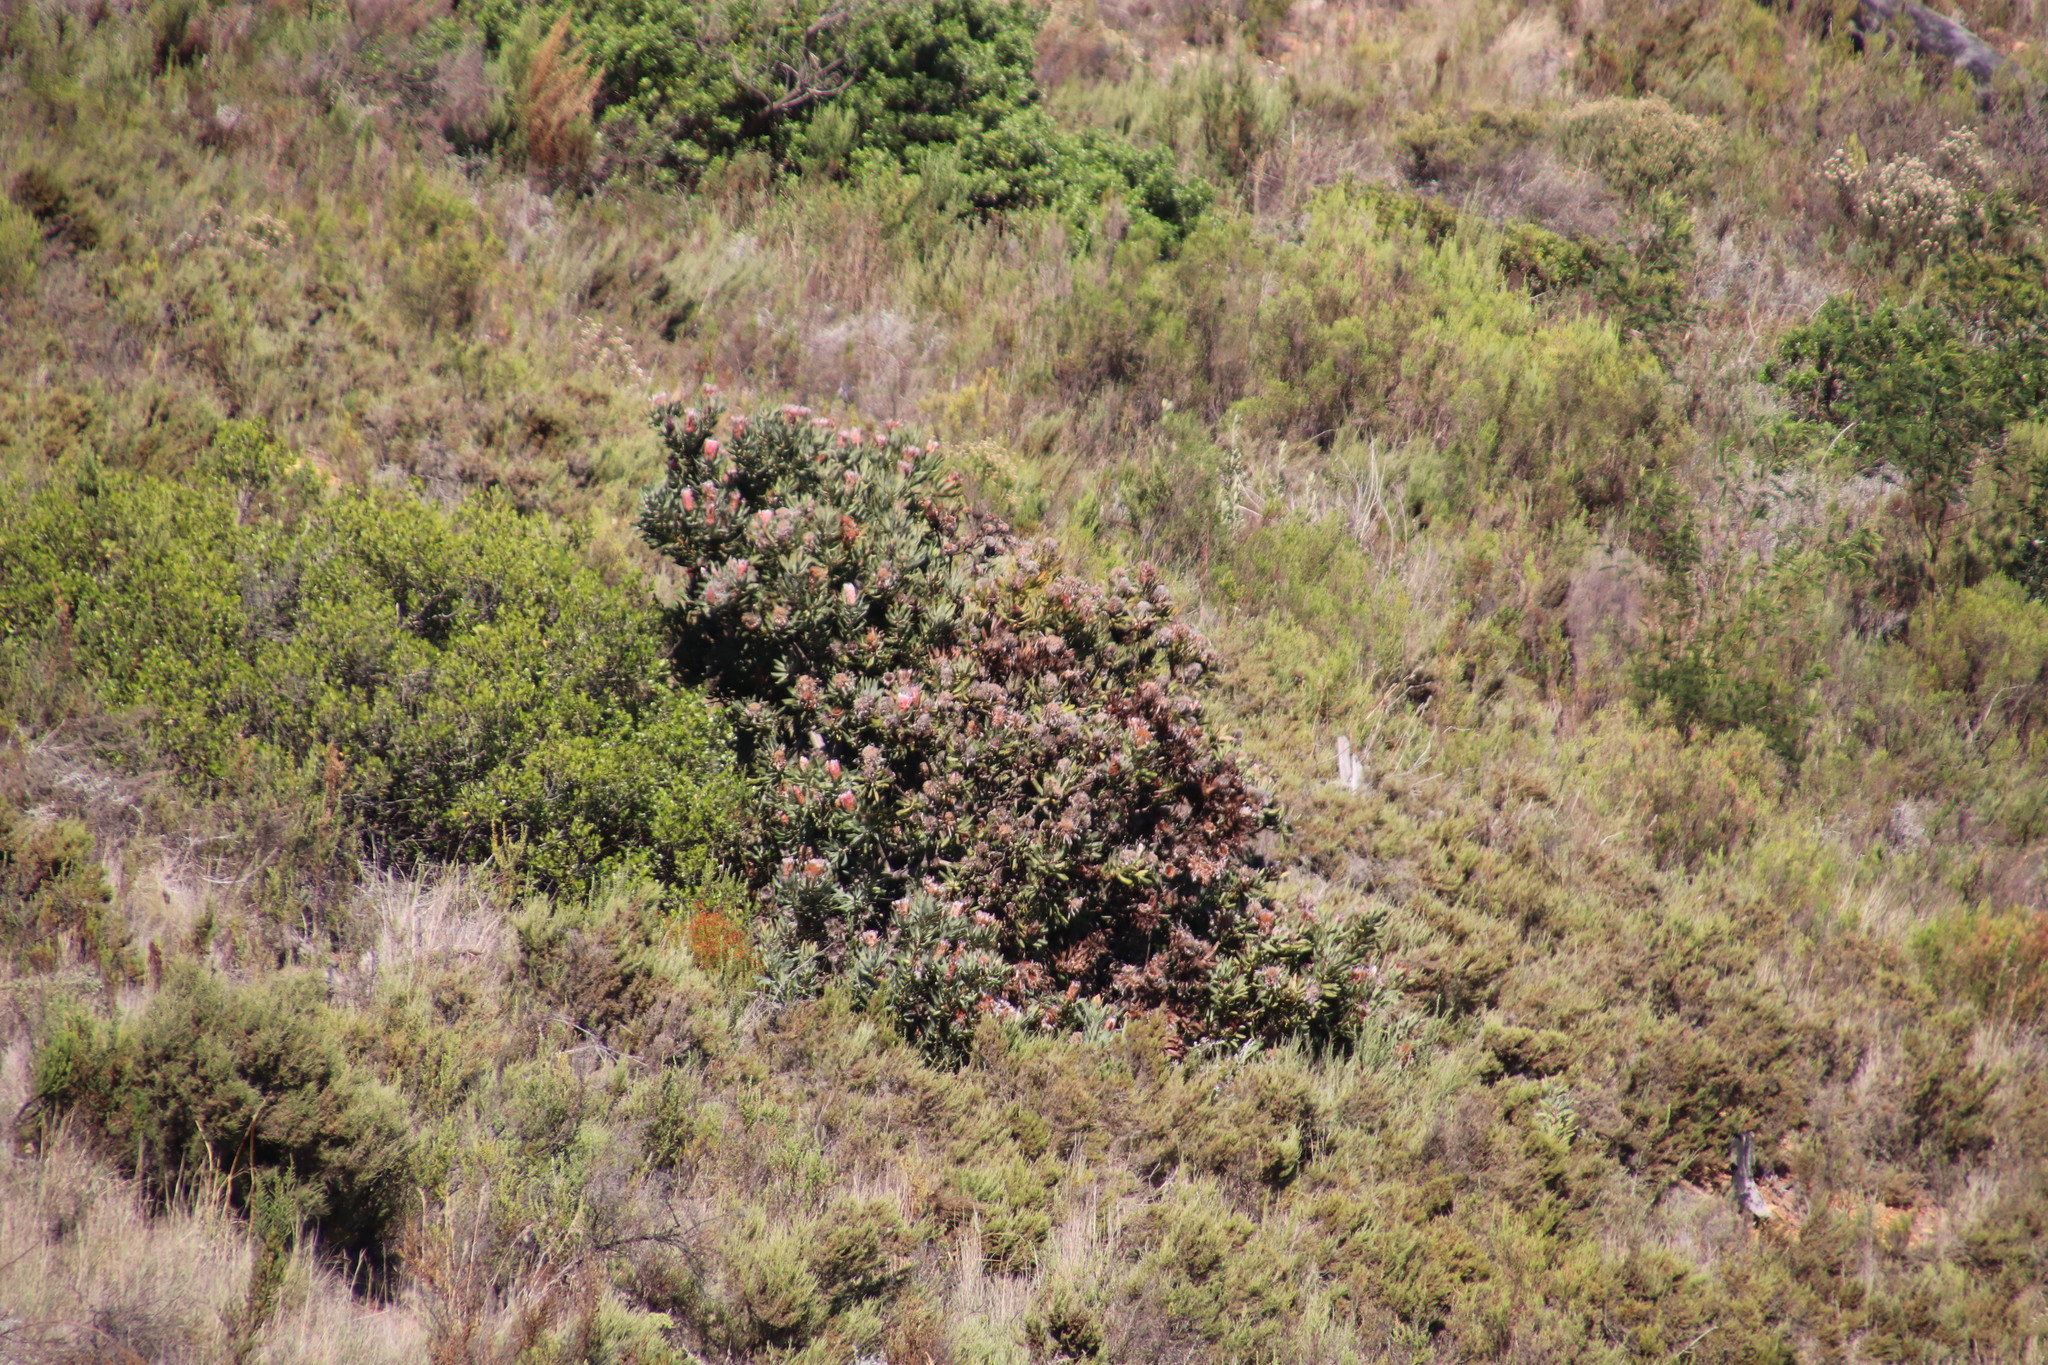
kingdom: Plantae
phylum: Tracheophyta
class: Magnoliopsida
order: Proteales
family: Proteaceae
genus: Protea
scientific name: Protea neriifolia
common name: Blue sugarbush
